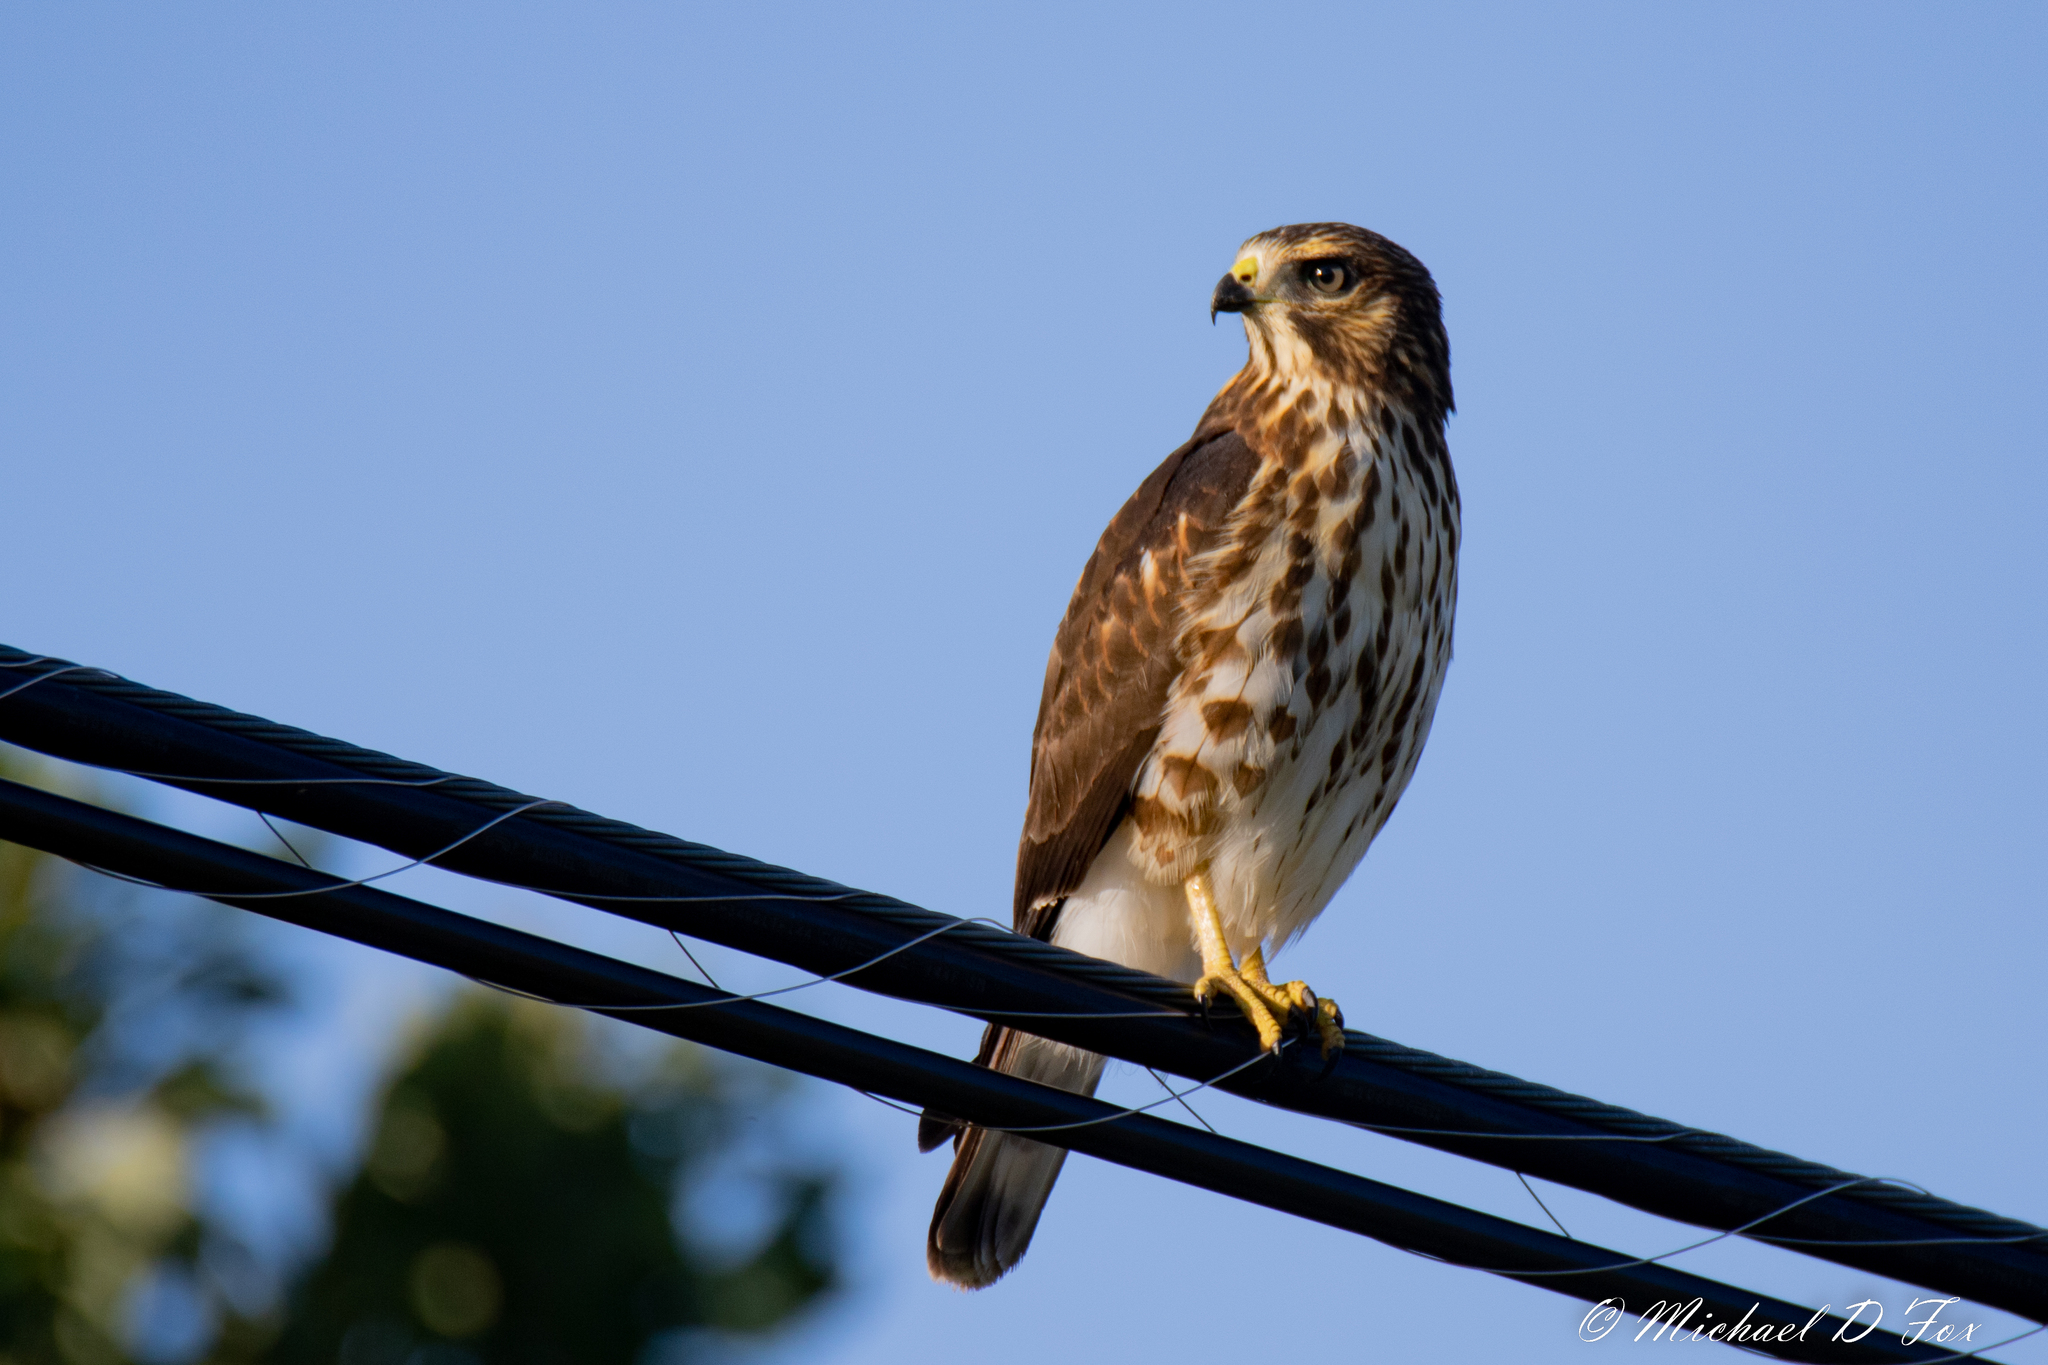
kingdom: Animalia
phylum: Chordata
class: Aves
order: Accipitriformes
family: Accipitridae
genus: Buteo
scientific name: Buteo platypterus
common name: Broad-winged hawk
